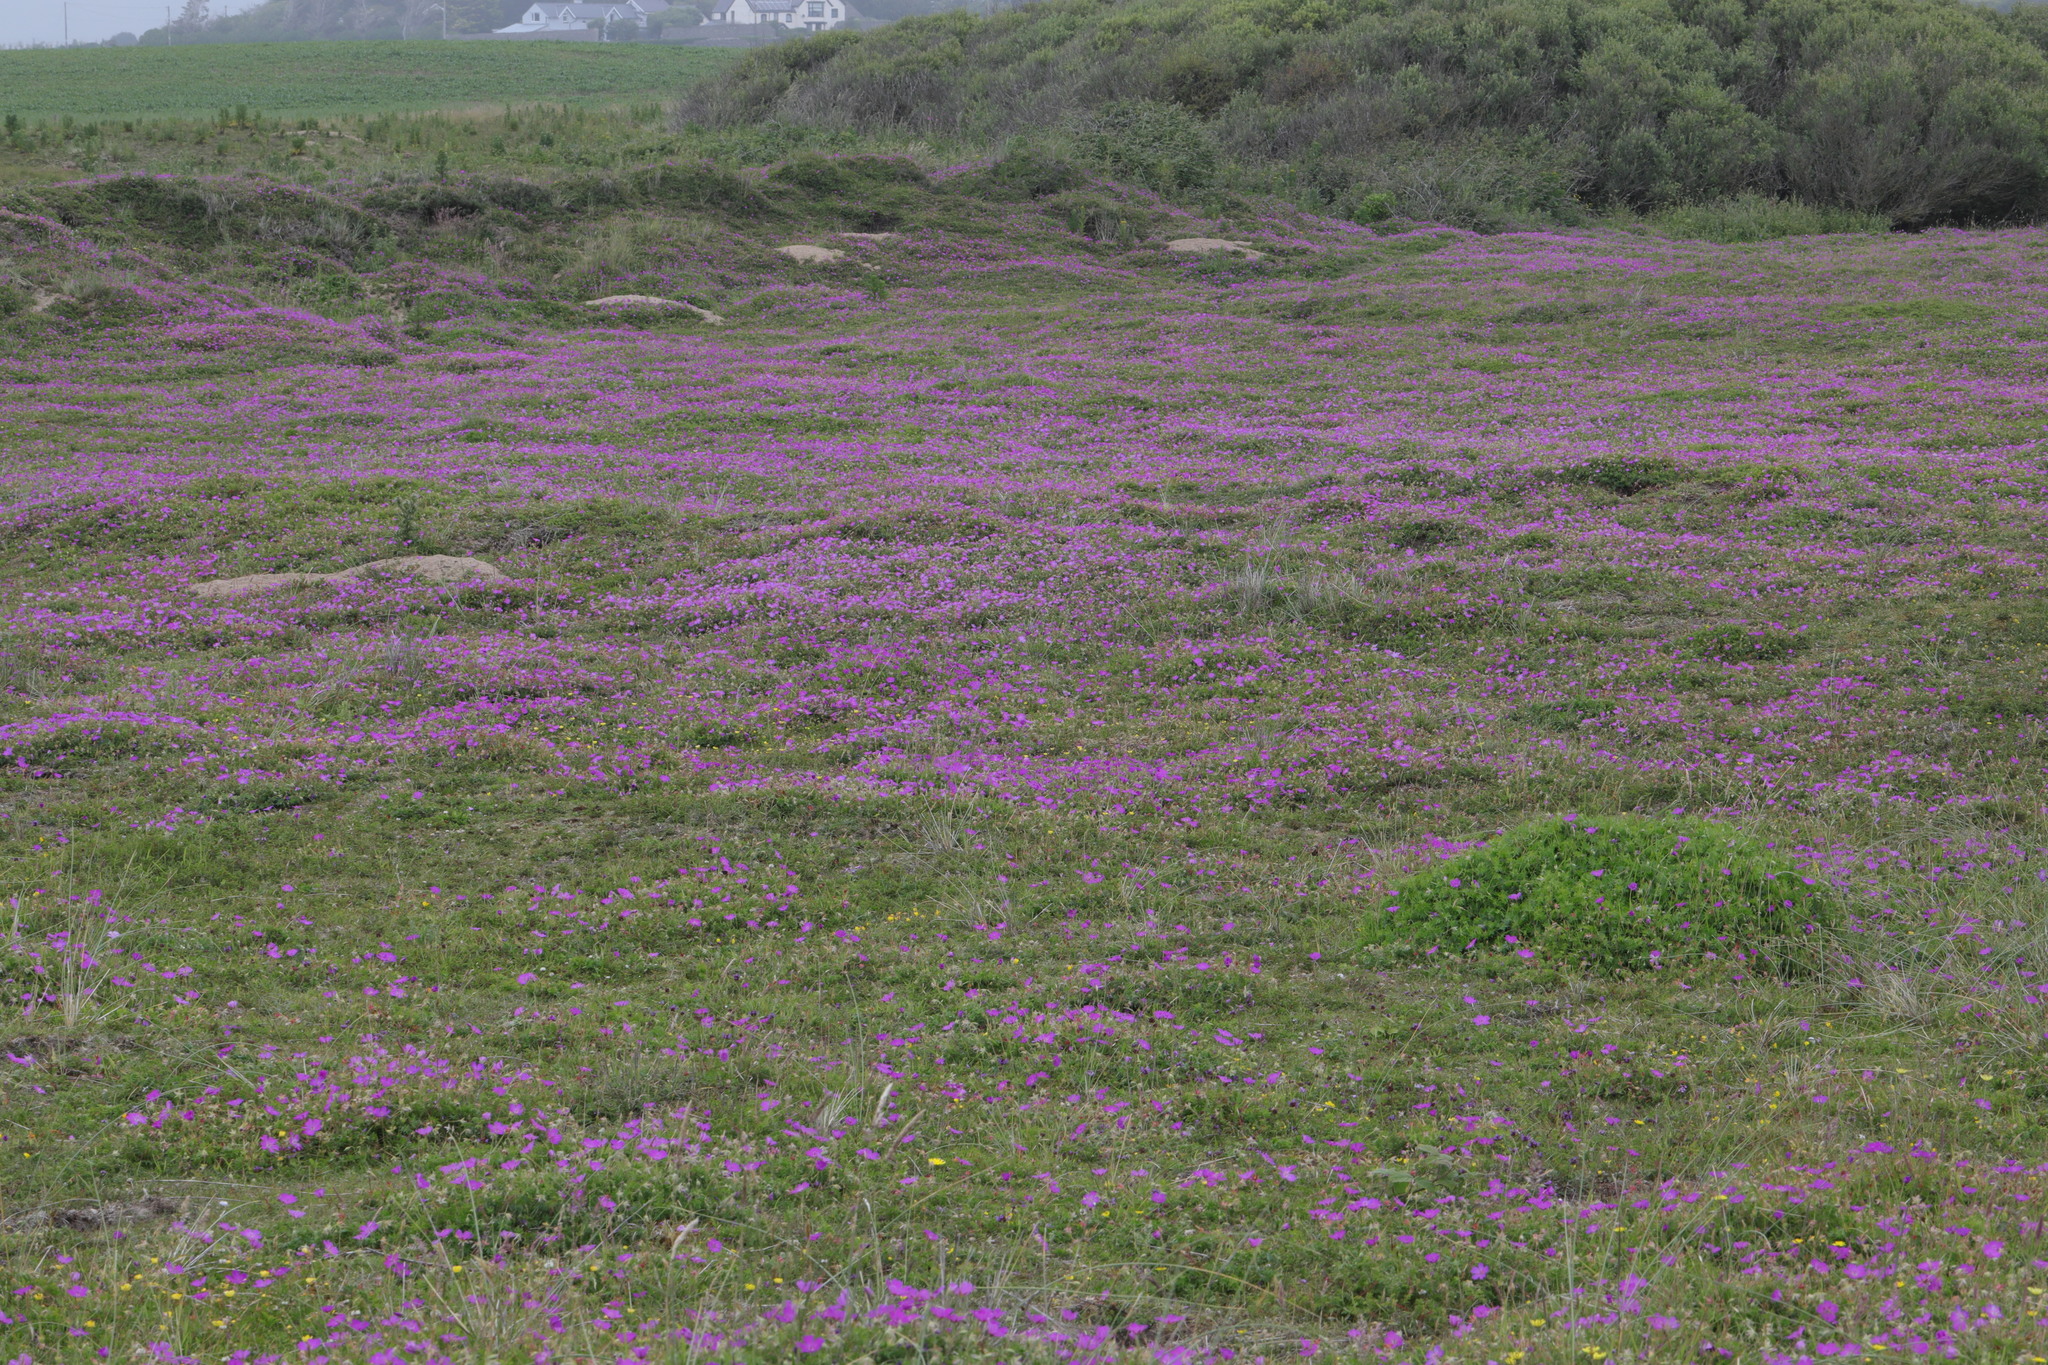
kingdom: Plantae
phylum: Tracheophyta
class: Magnoliopsida
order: Geraniales
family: Geraniaceae
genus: Geranium
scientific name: Geranium sanguineum
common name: Bloody crane's-bill
